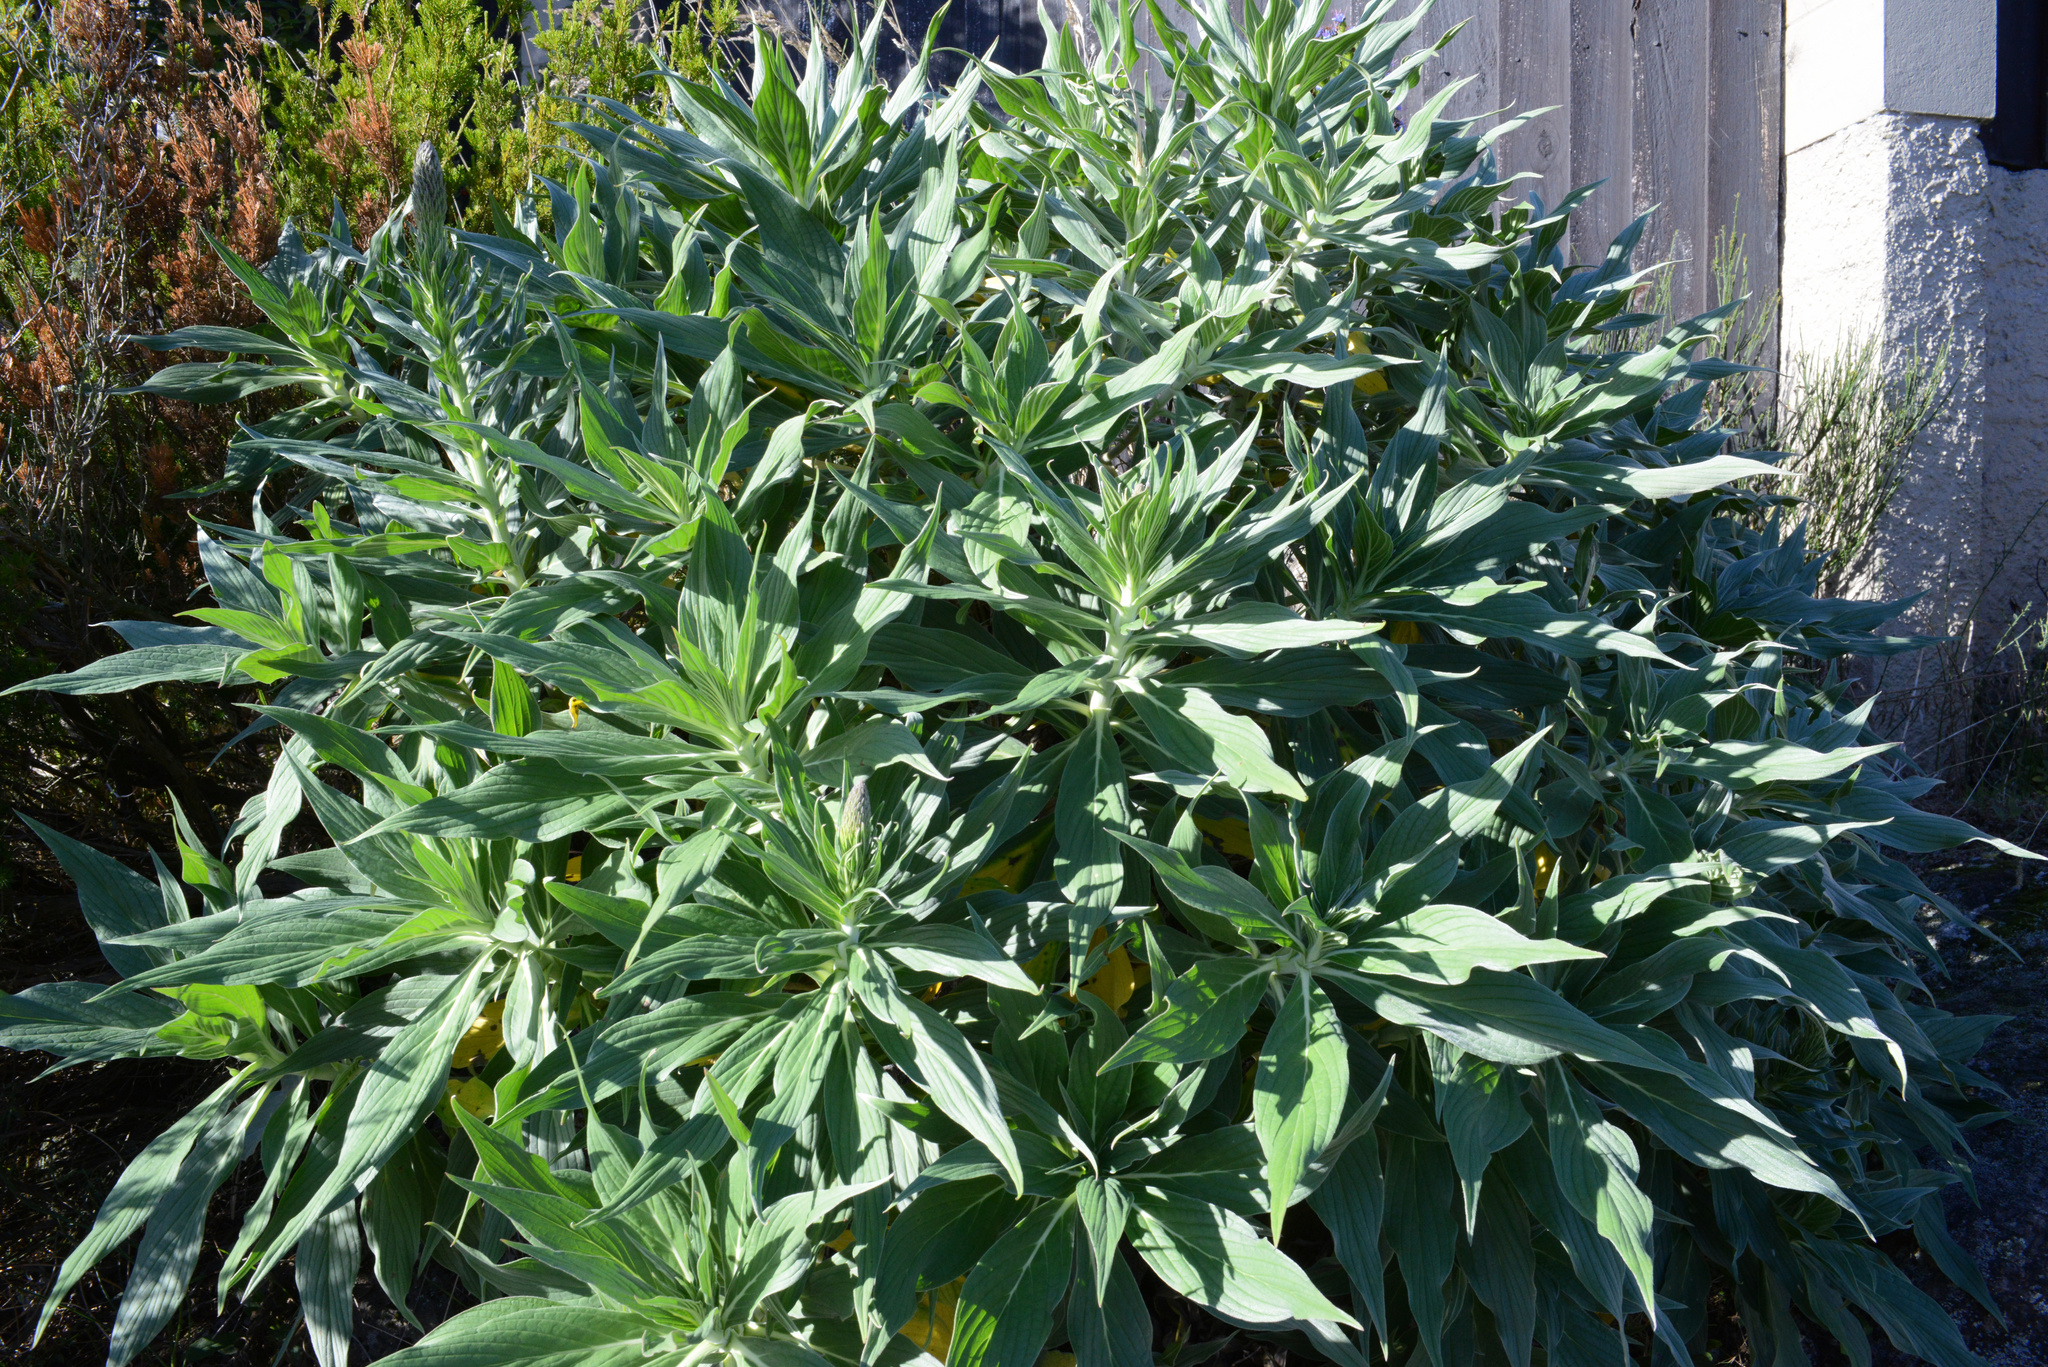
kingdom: Plantae
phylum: Tracheophyta
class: Magnoliopsida
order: Boraginales
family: Boraginaceae
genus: Echium
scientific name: Echium candicans
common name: Pride of madeira
